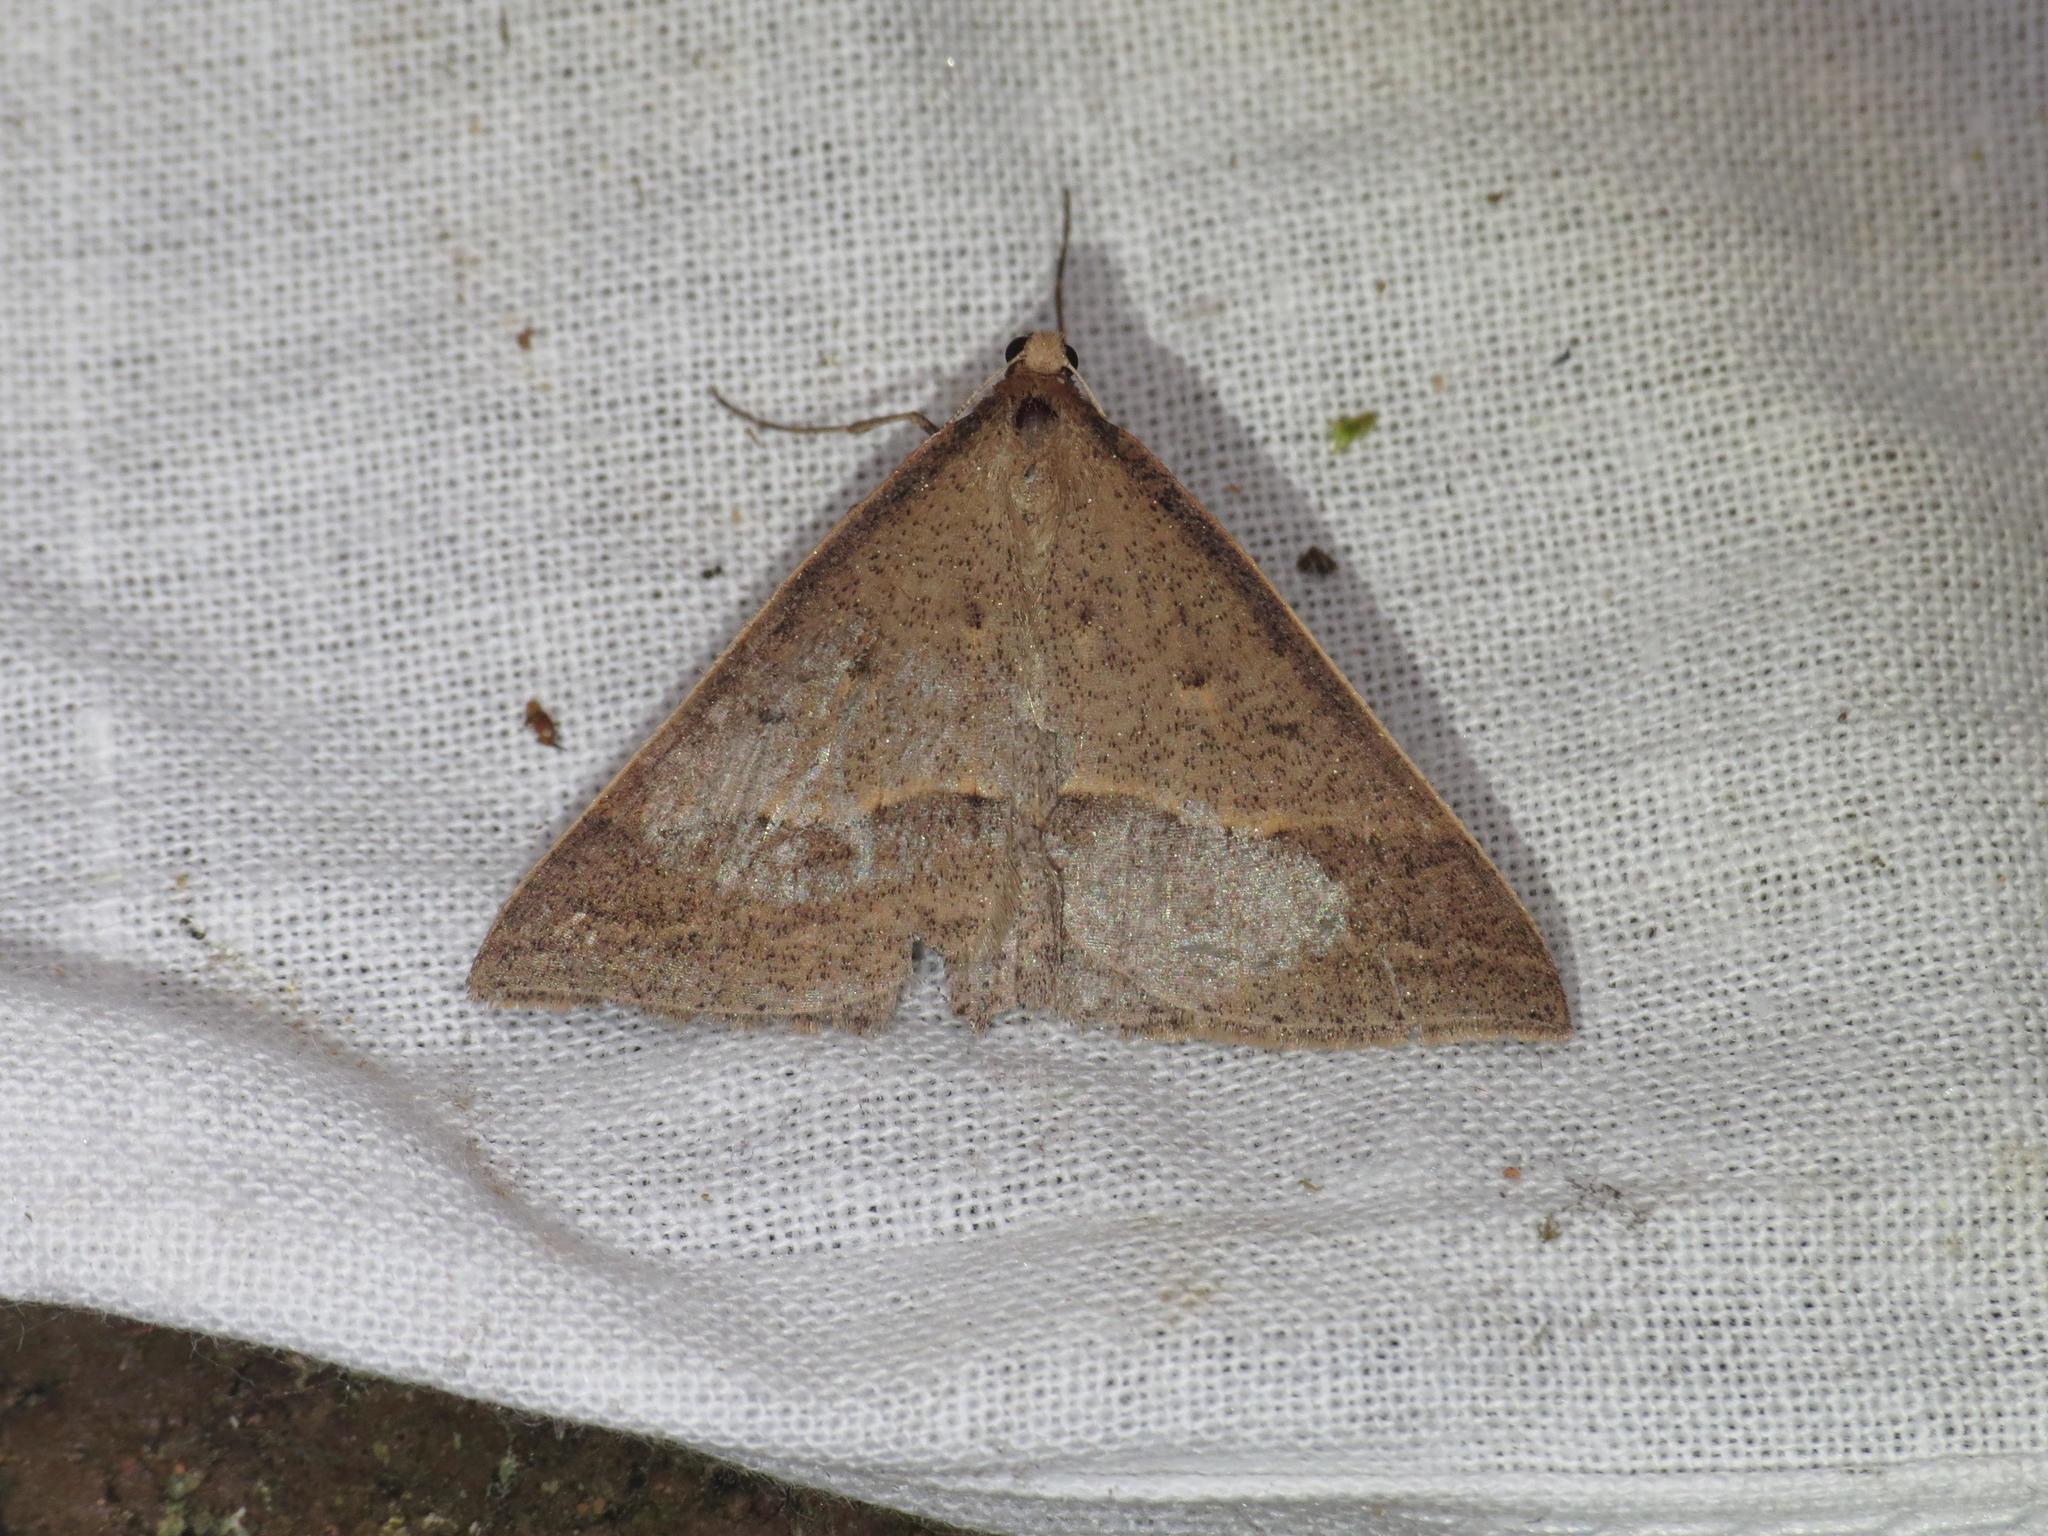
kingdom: Animalia
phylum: Arthropoda
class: Insecta
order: Lepidoptera
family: Geometridae
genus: Epidesmia
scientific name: Epidesmia hypenaria
